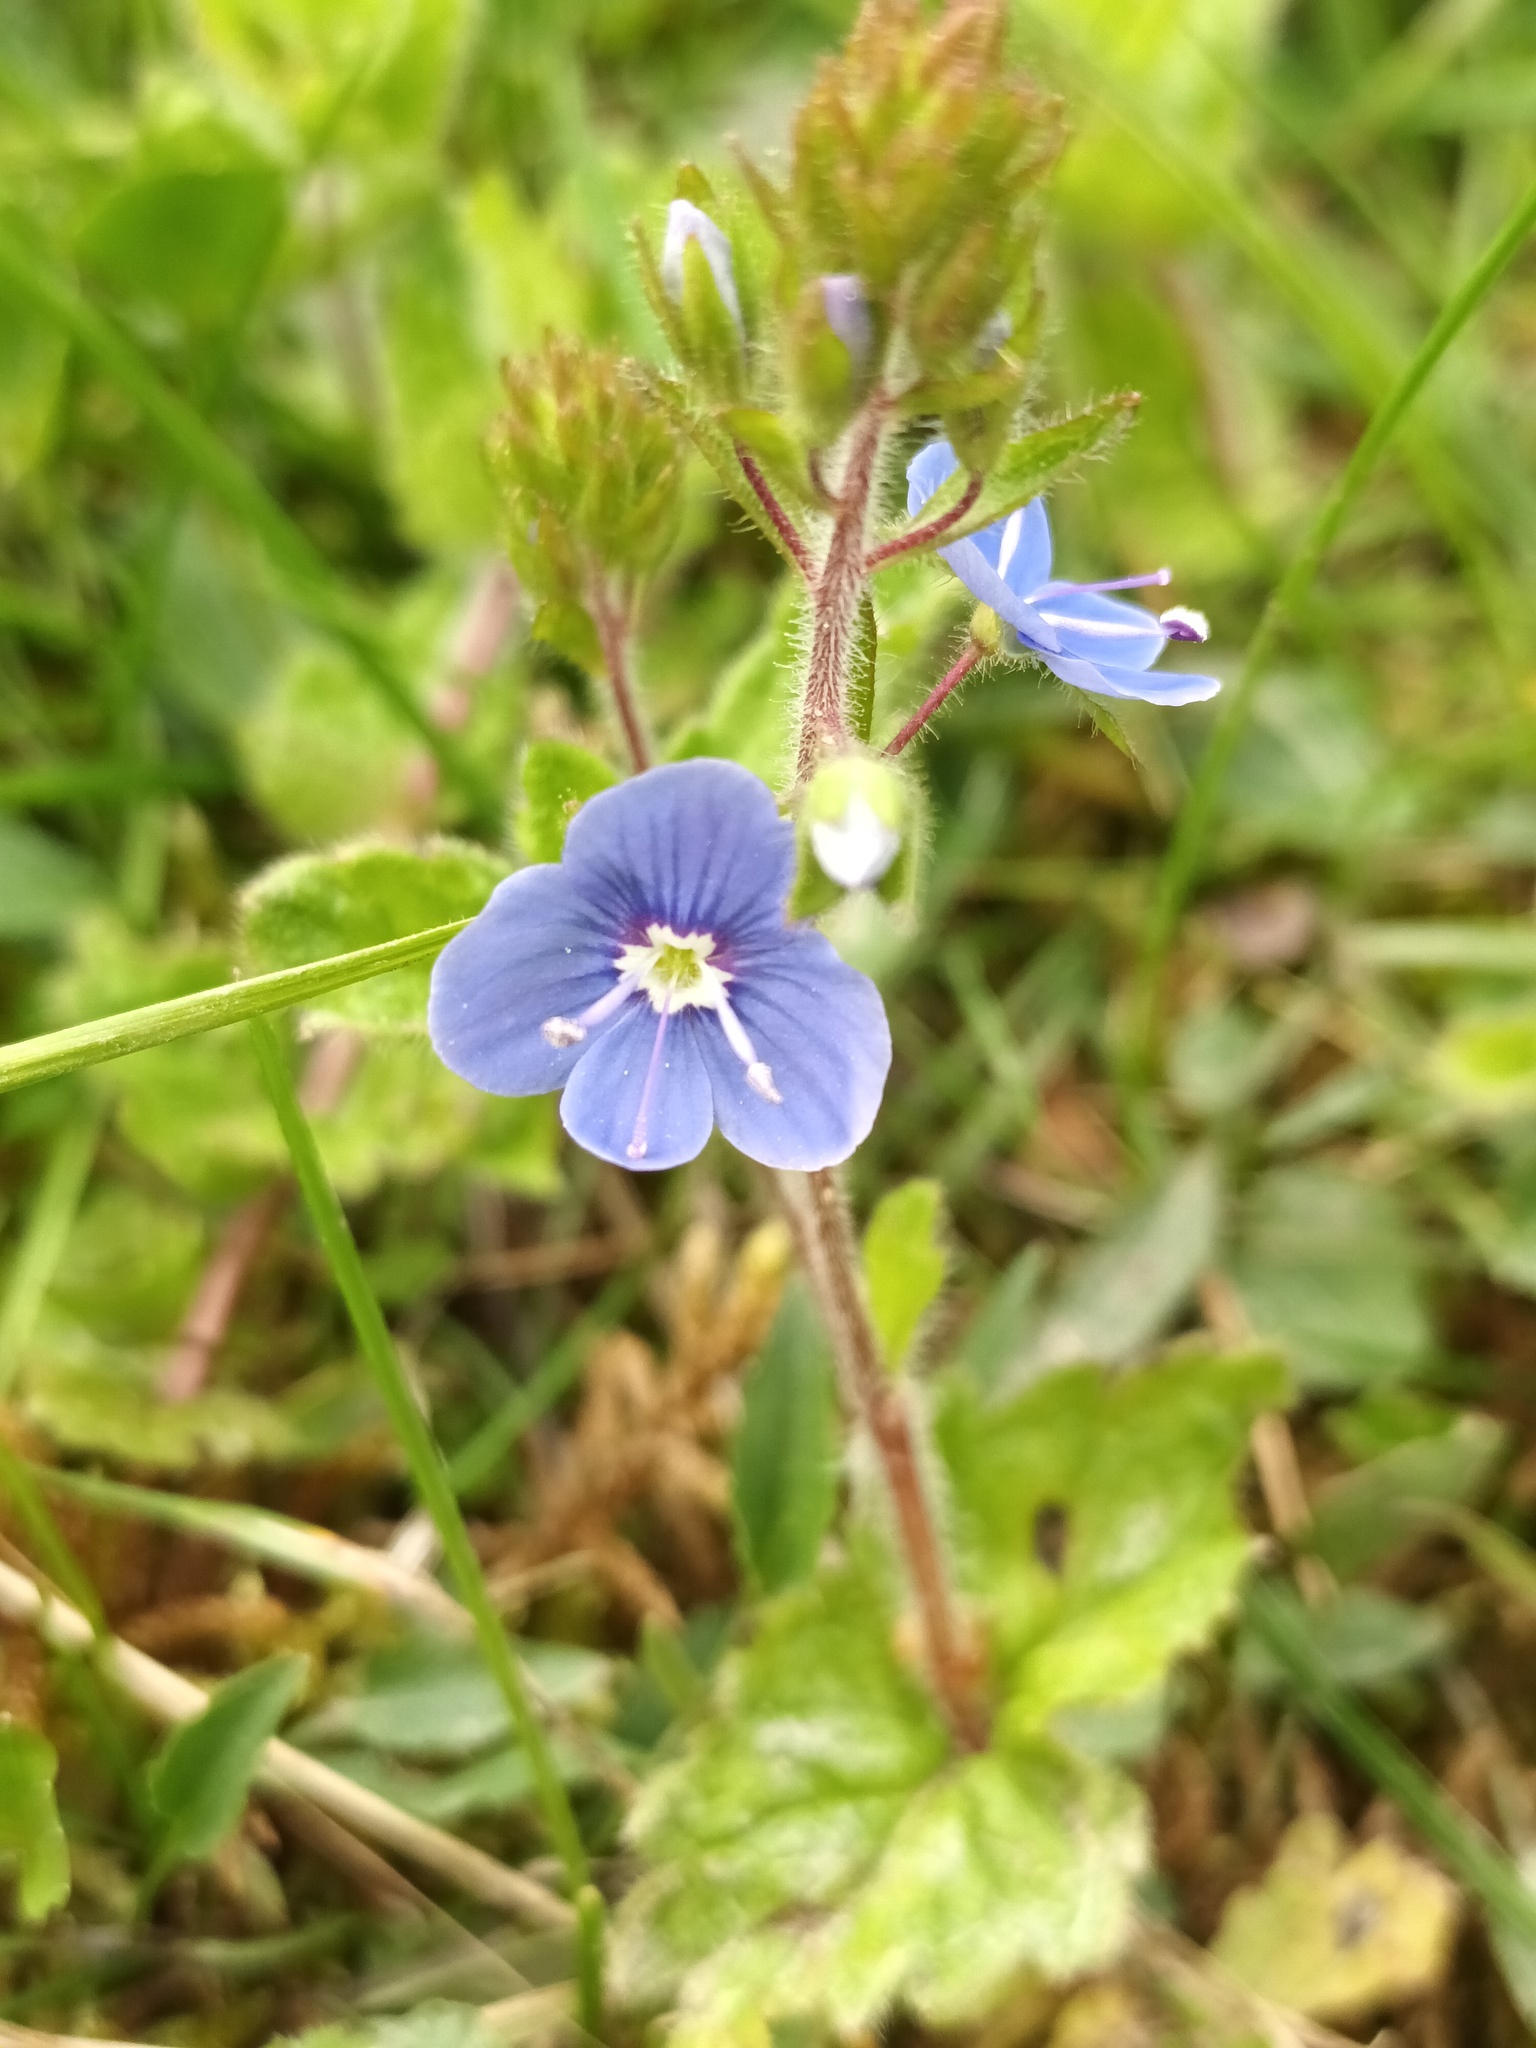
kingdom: Plantae
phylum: Tracheophyta
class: Magnoliopsida
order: Lamiales
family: Plantaginaceae
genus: Veronica
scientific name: Veronica chamaedrys
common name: Germander speedwell
